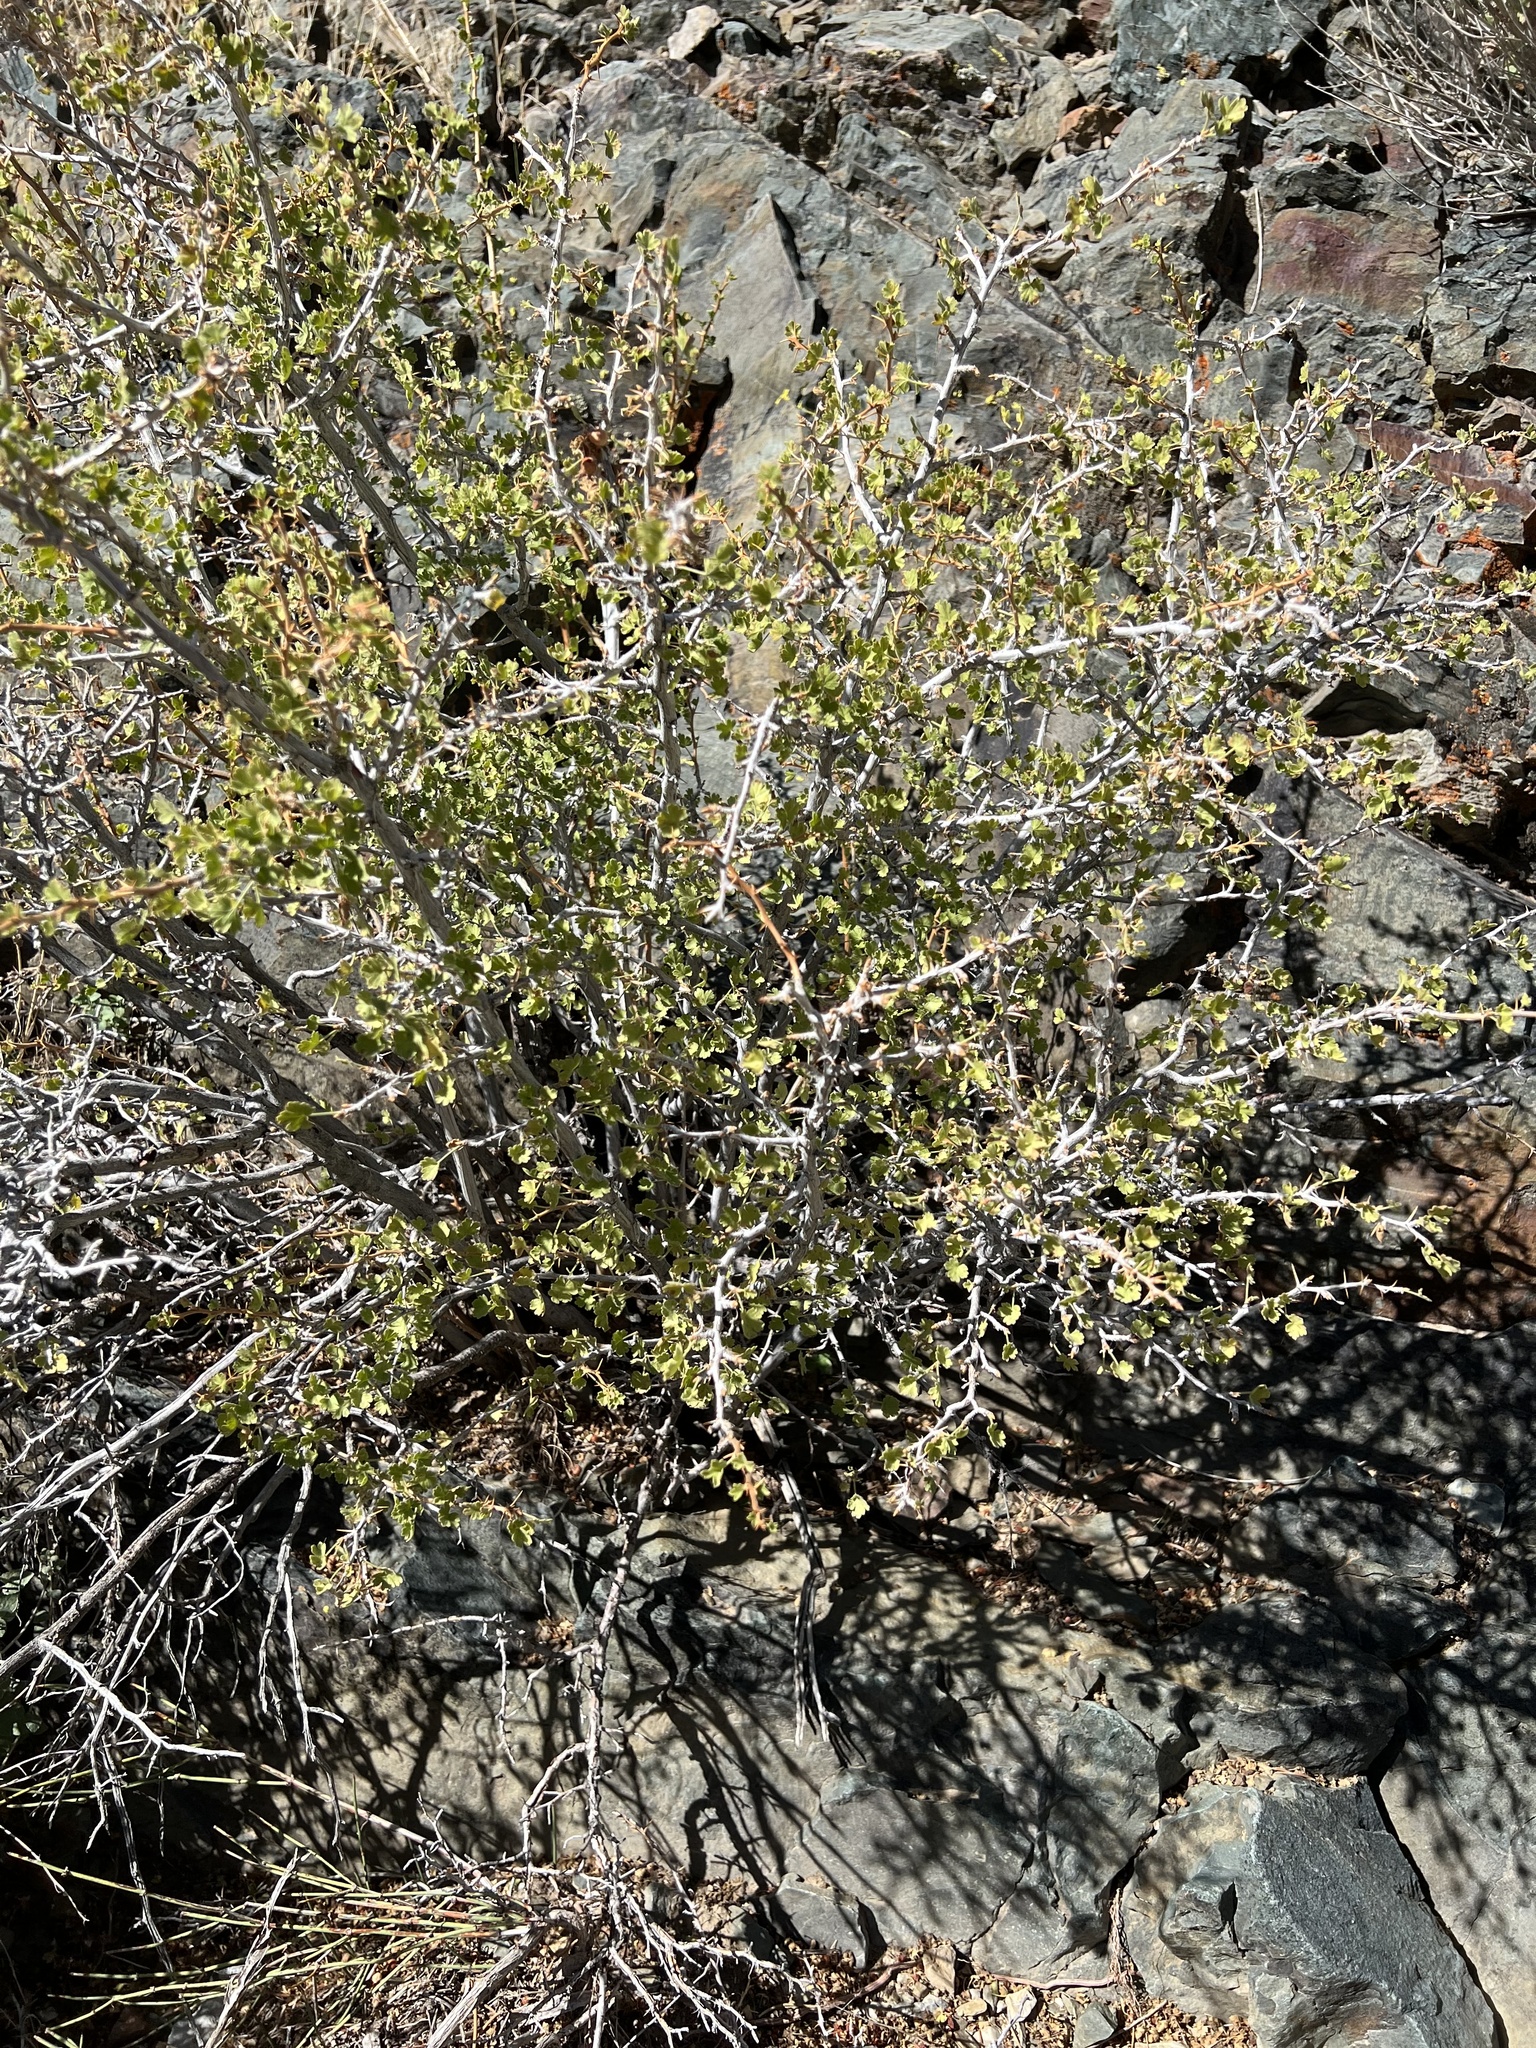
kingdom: Plantae
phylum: Tracheophyta
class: Magnoliopsida
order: Saxifragales
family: Grossulariaceae
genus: Ribes
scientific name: Ribes velutinum
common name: Desert gooseberry
